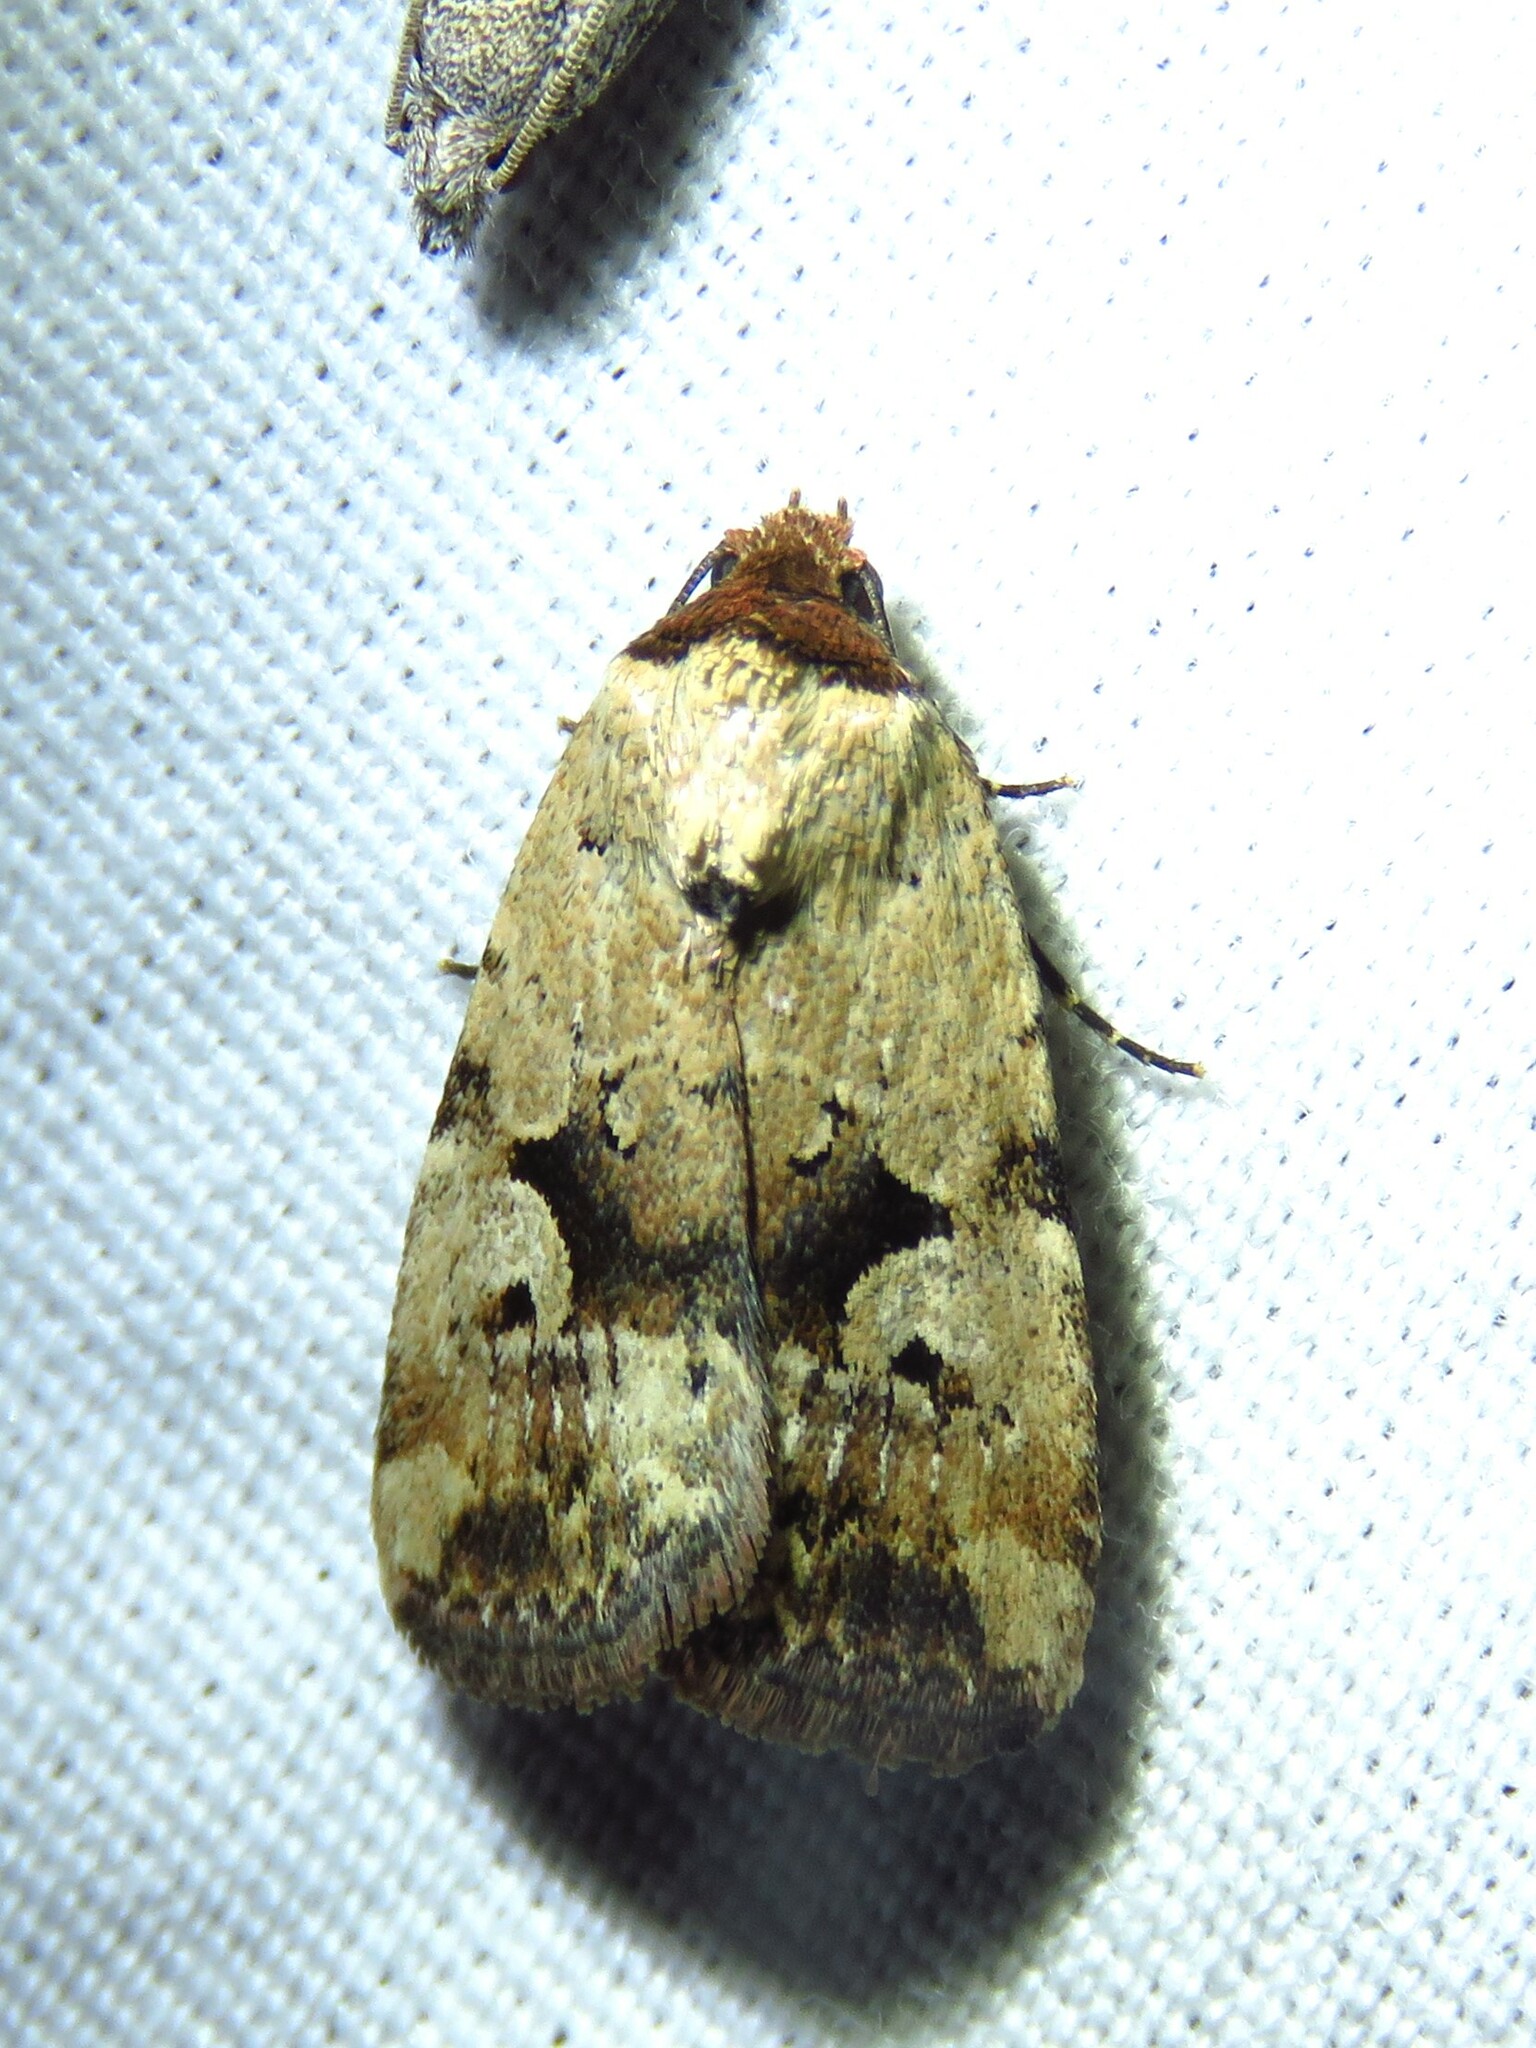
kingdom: Animalia
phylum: Arthropoda
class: Insecta
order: Lepidoptera
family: Noctuidae
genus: Elaphria
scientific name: Elaphria festivoides
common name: Festive midget
